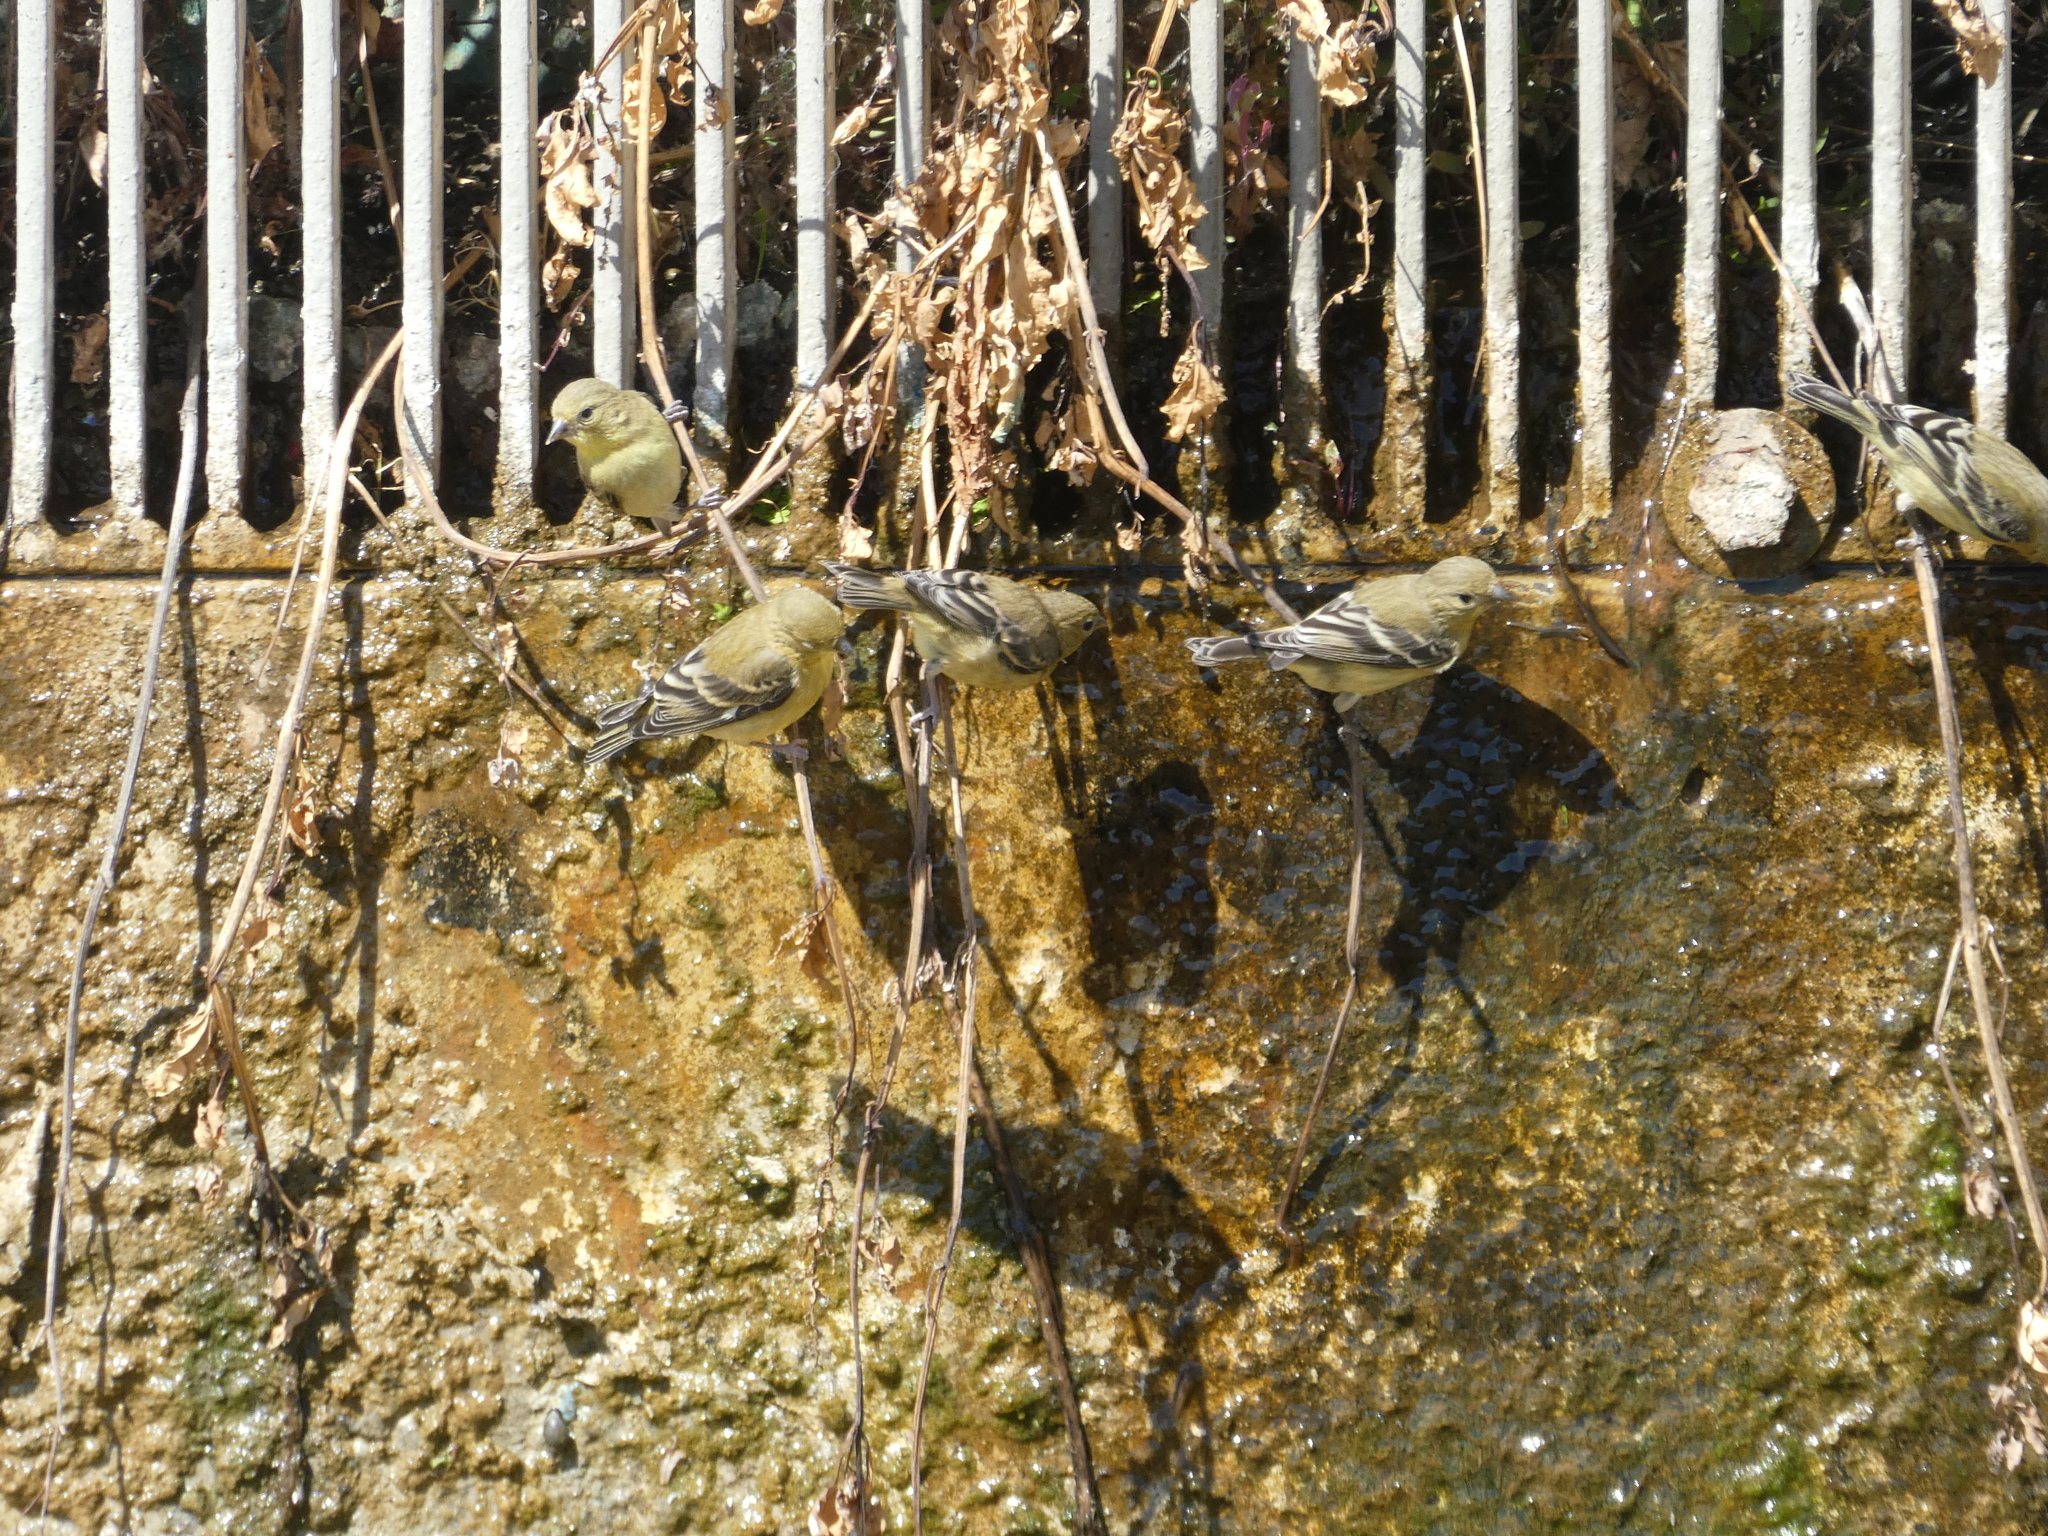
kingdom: Animalia
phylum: Chordata
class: Aves
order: Passeriformes
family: Fringillidae
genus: Spinus
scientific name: Spinus psaltria
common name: Lesser goldfinch
